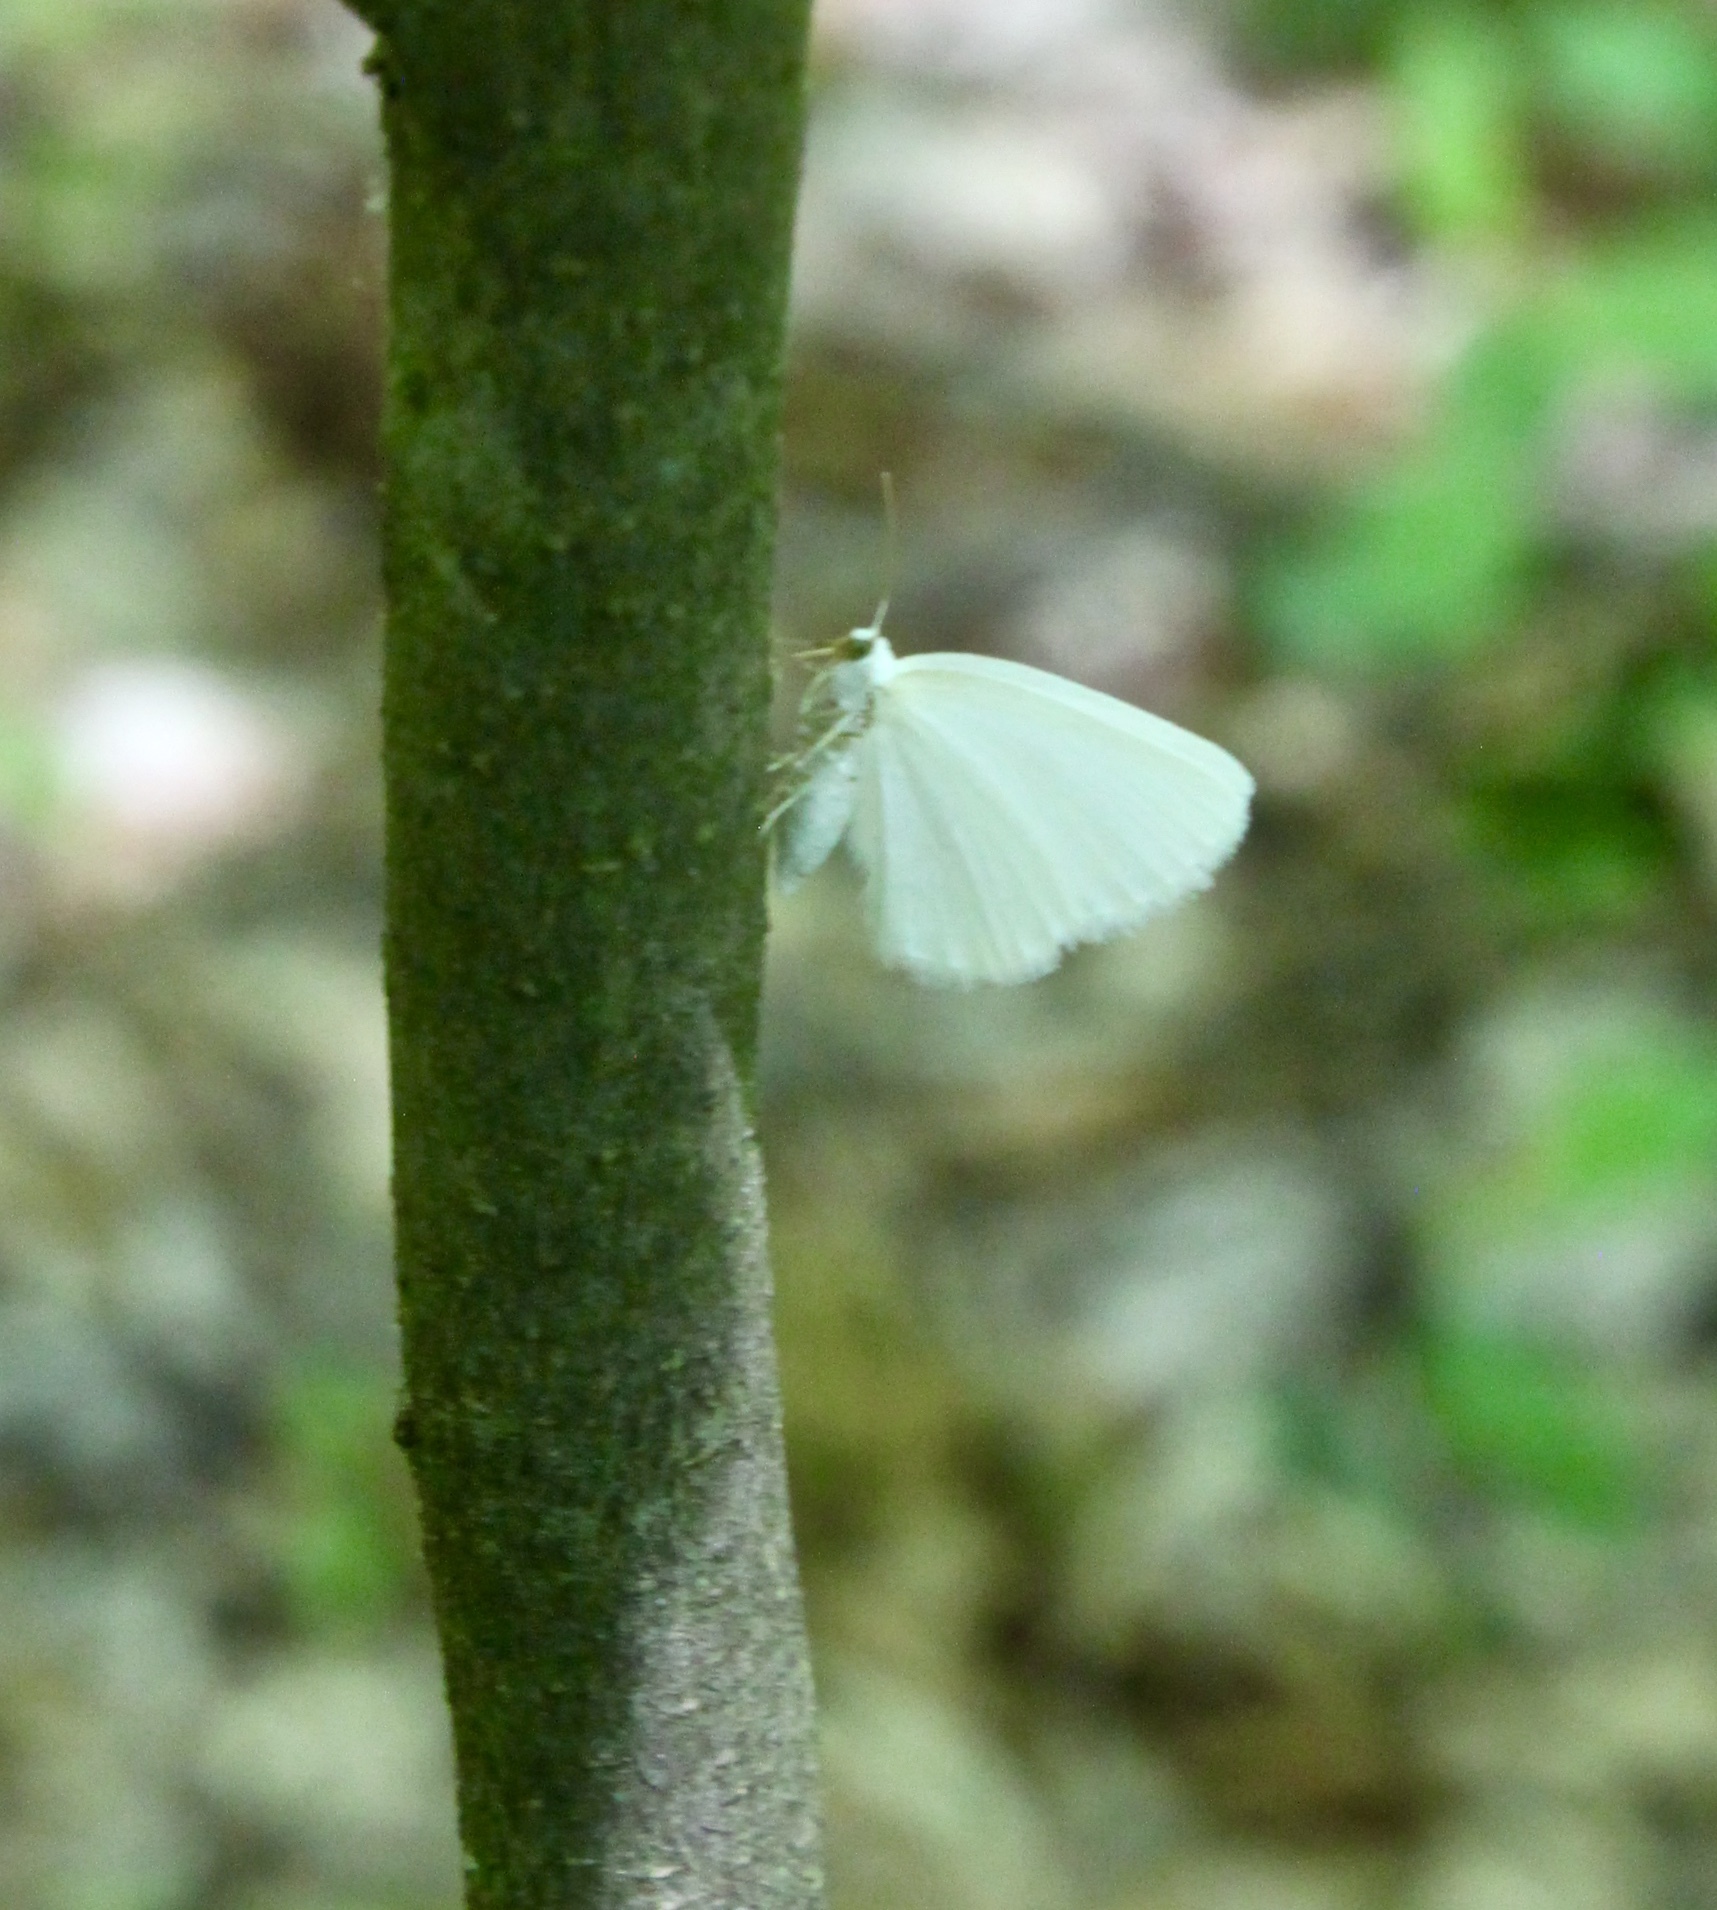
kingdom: Animalia
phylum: Arthropoda
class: Insecta
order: Lepidoptera
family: Geometridae
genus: Lomographa
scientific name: Lomographa vestaliata
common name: White spring moth
